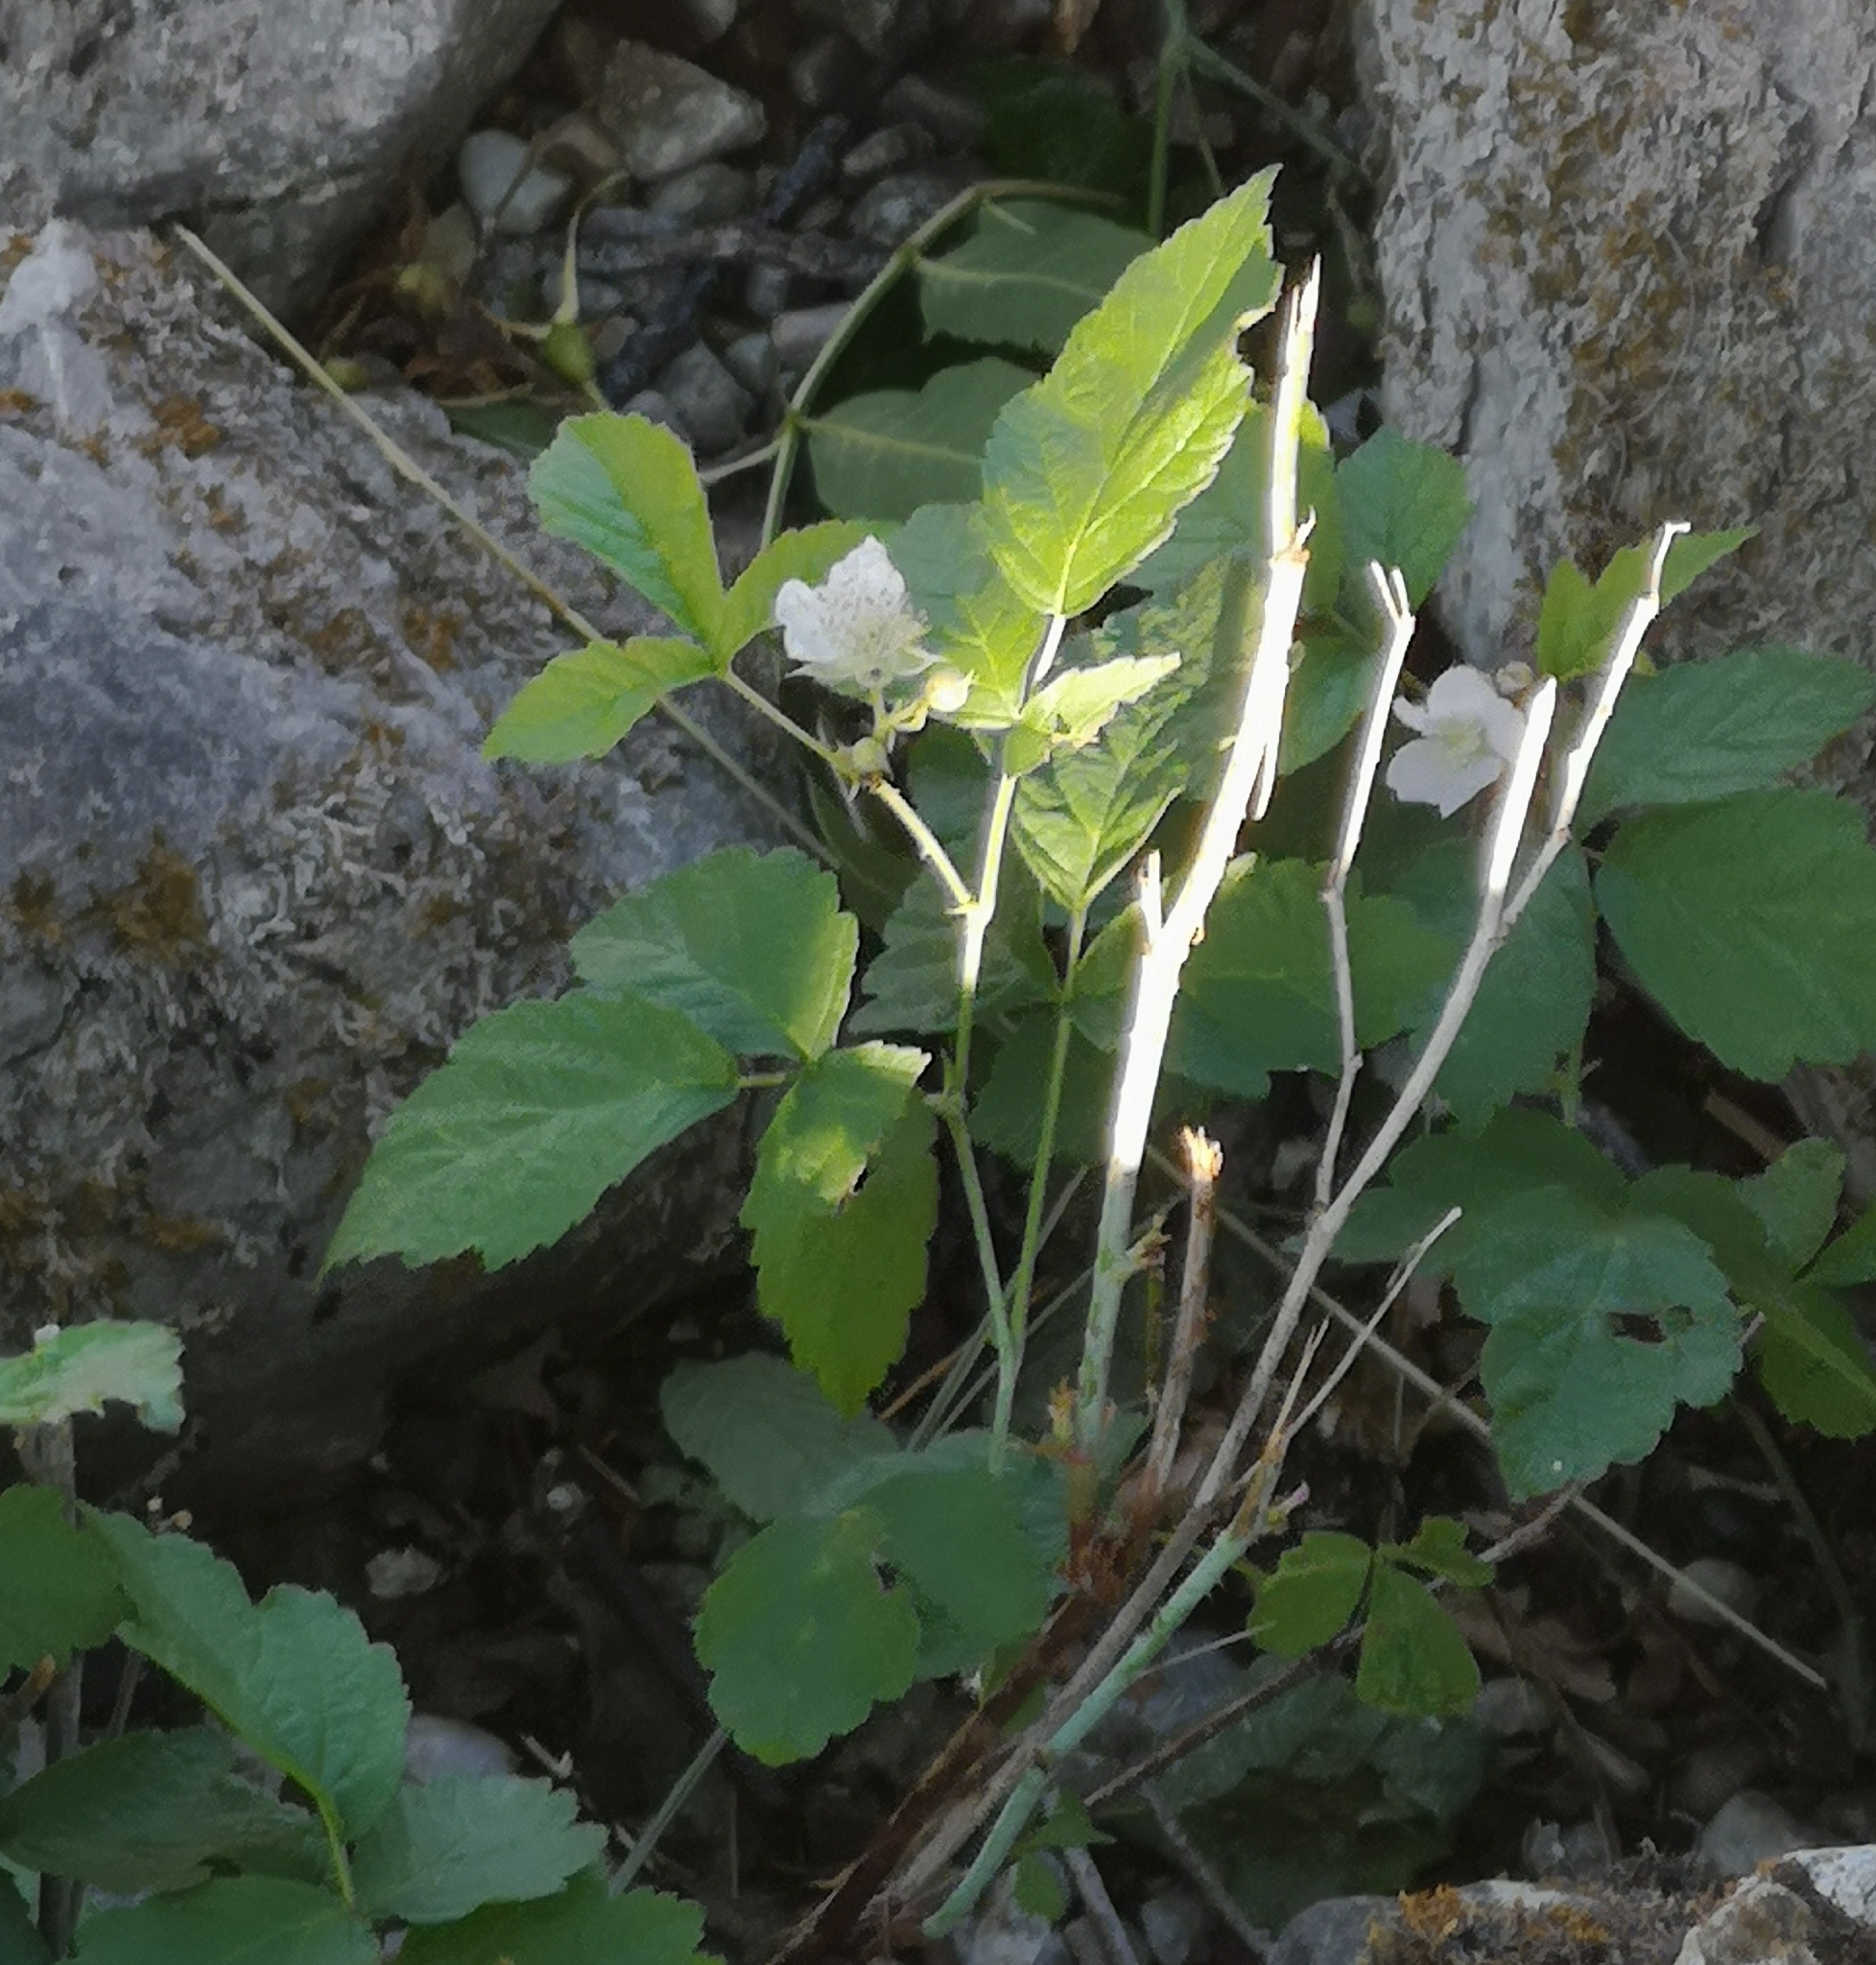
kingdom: Plantae
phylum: Tracheophyta
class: Magnoliopsida
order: Rosales
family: Rosaceae
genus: Rubus
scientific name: Rubus caesius
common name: Dewberry
